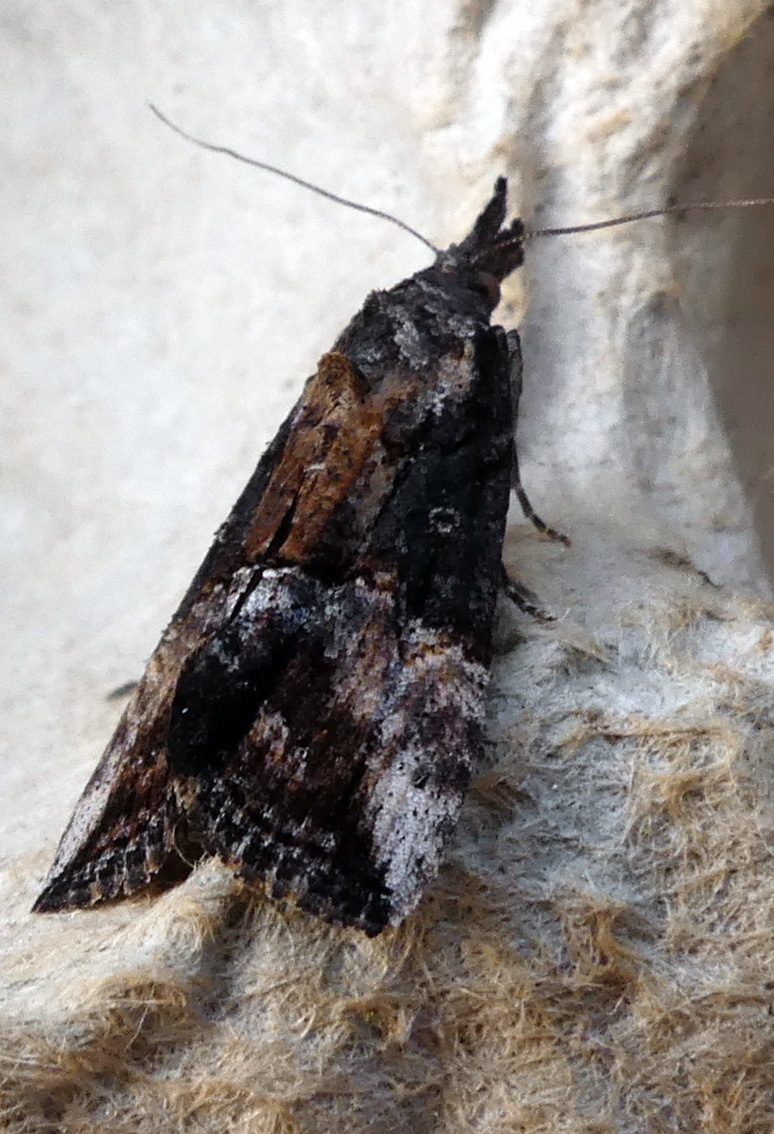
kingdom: Animalia
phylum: Arthropoda
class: Insecta
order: Lepidoptera
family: Erebidae
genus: Hypena
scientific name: Hypena scabra
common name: Green cloverworm
